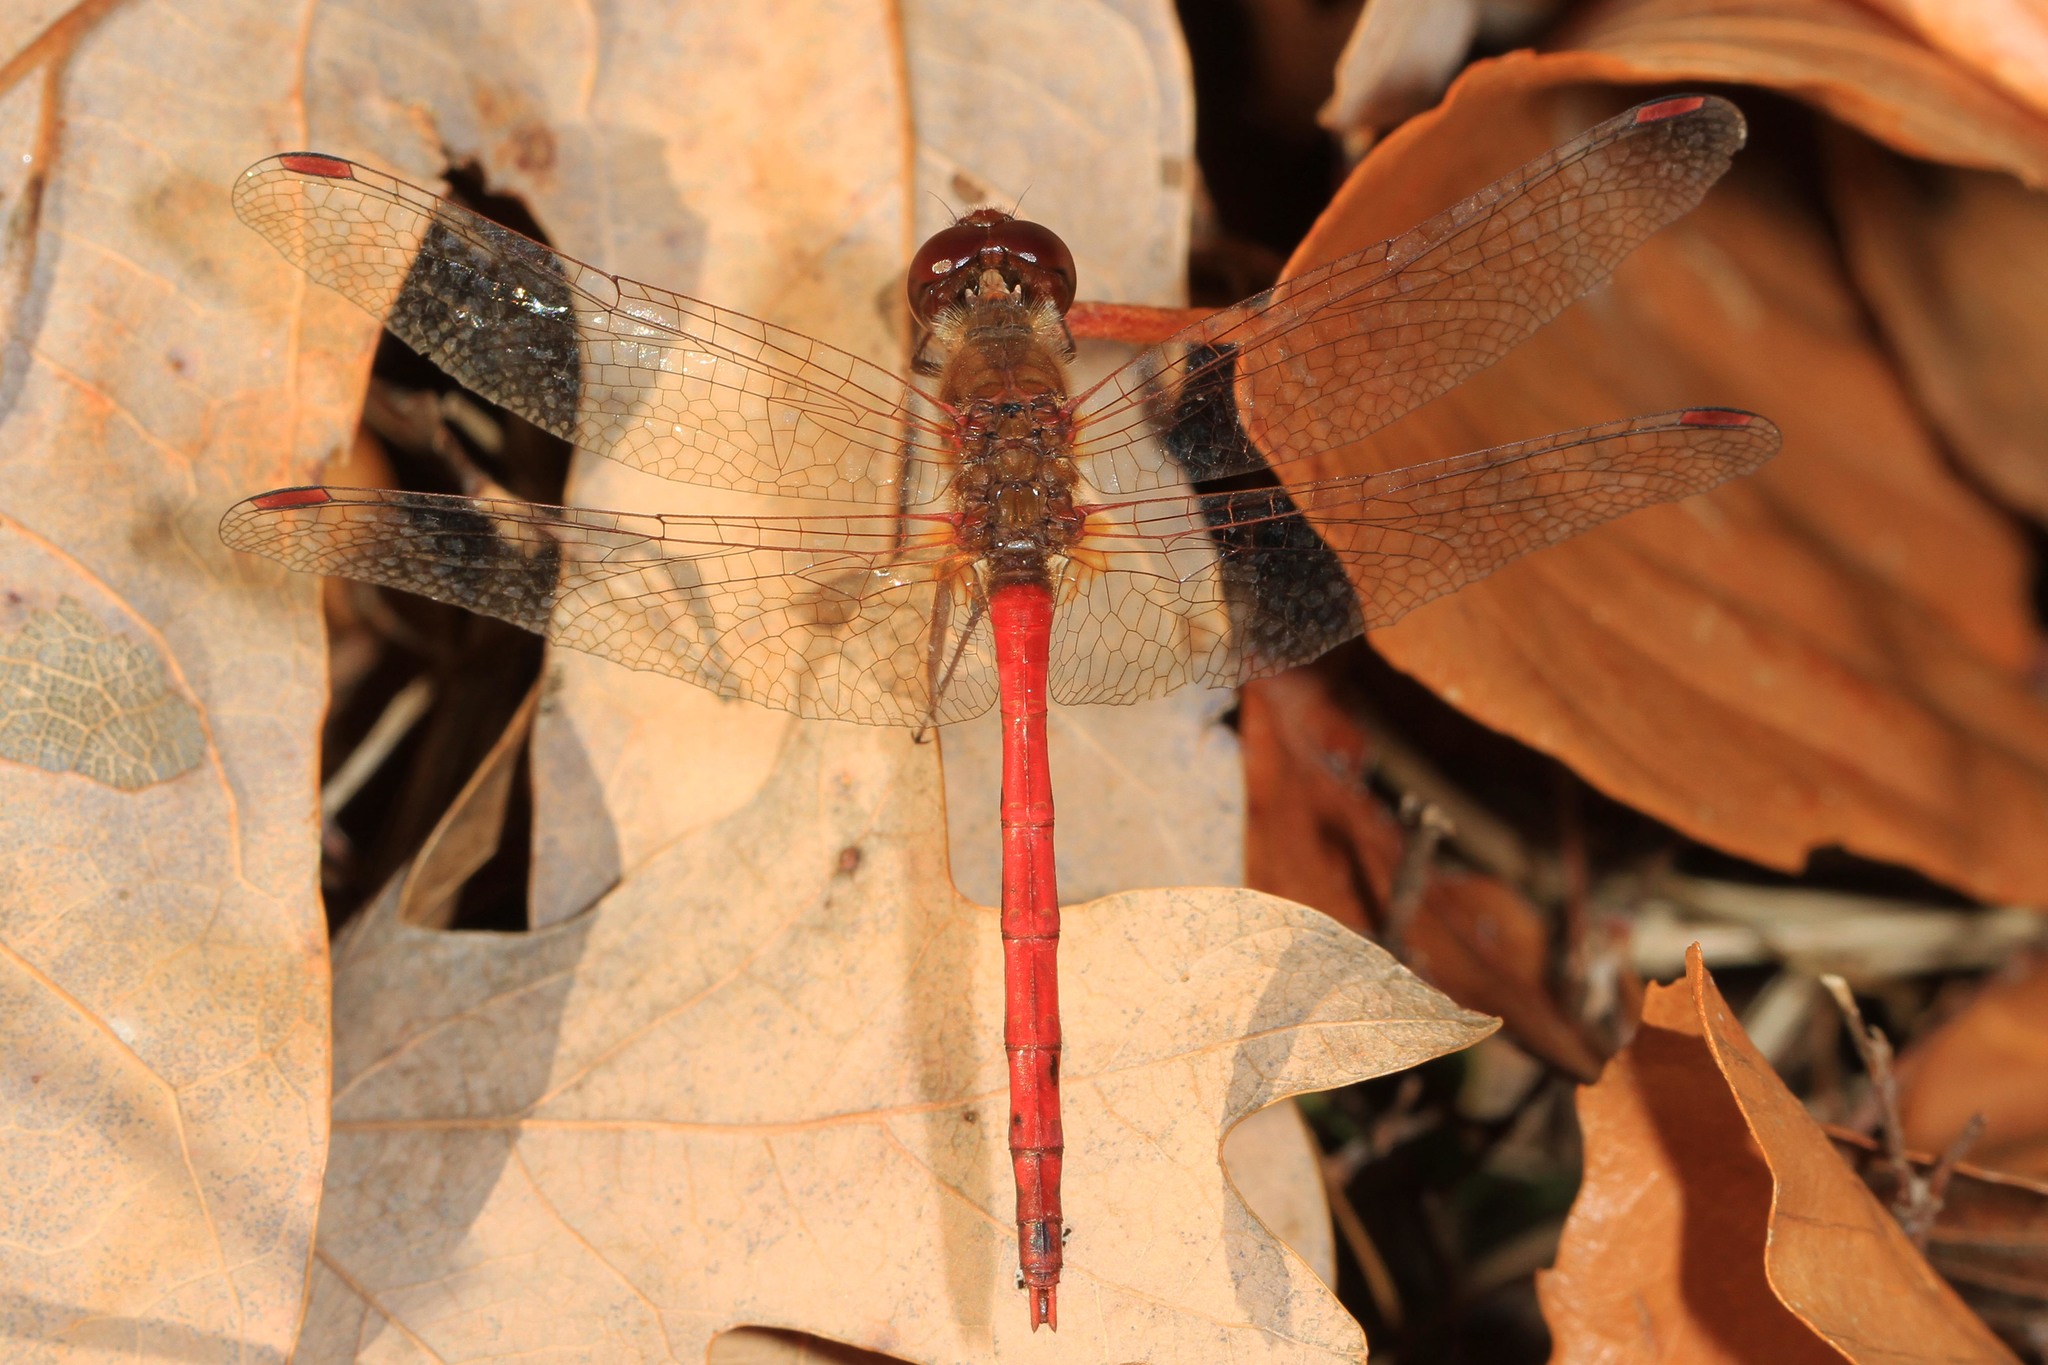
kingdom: Animalia
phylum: Arthropoda
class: Insecta
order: Odonata
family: Libellulidae
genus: Sympetrum
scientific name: Sympetrum vicinum
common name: Autumn meadowhawk
